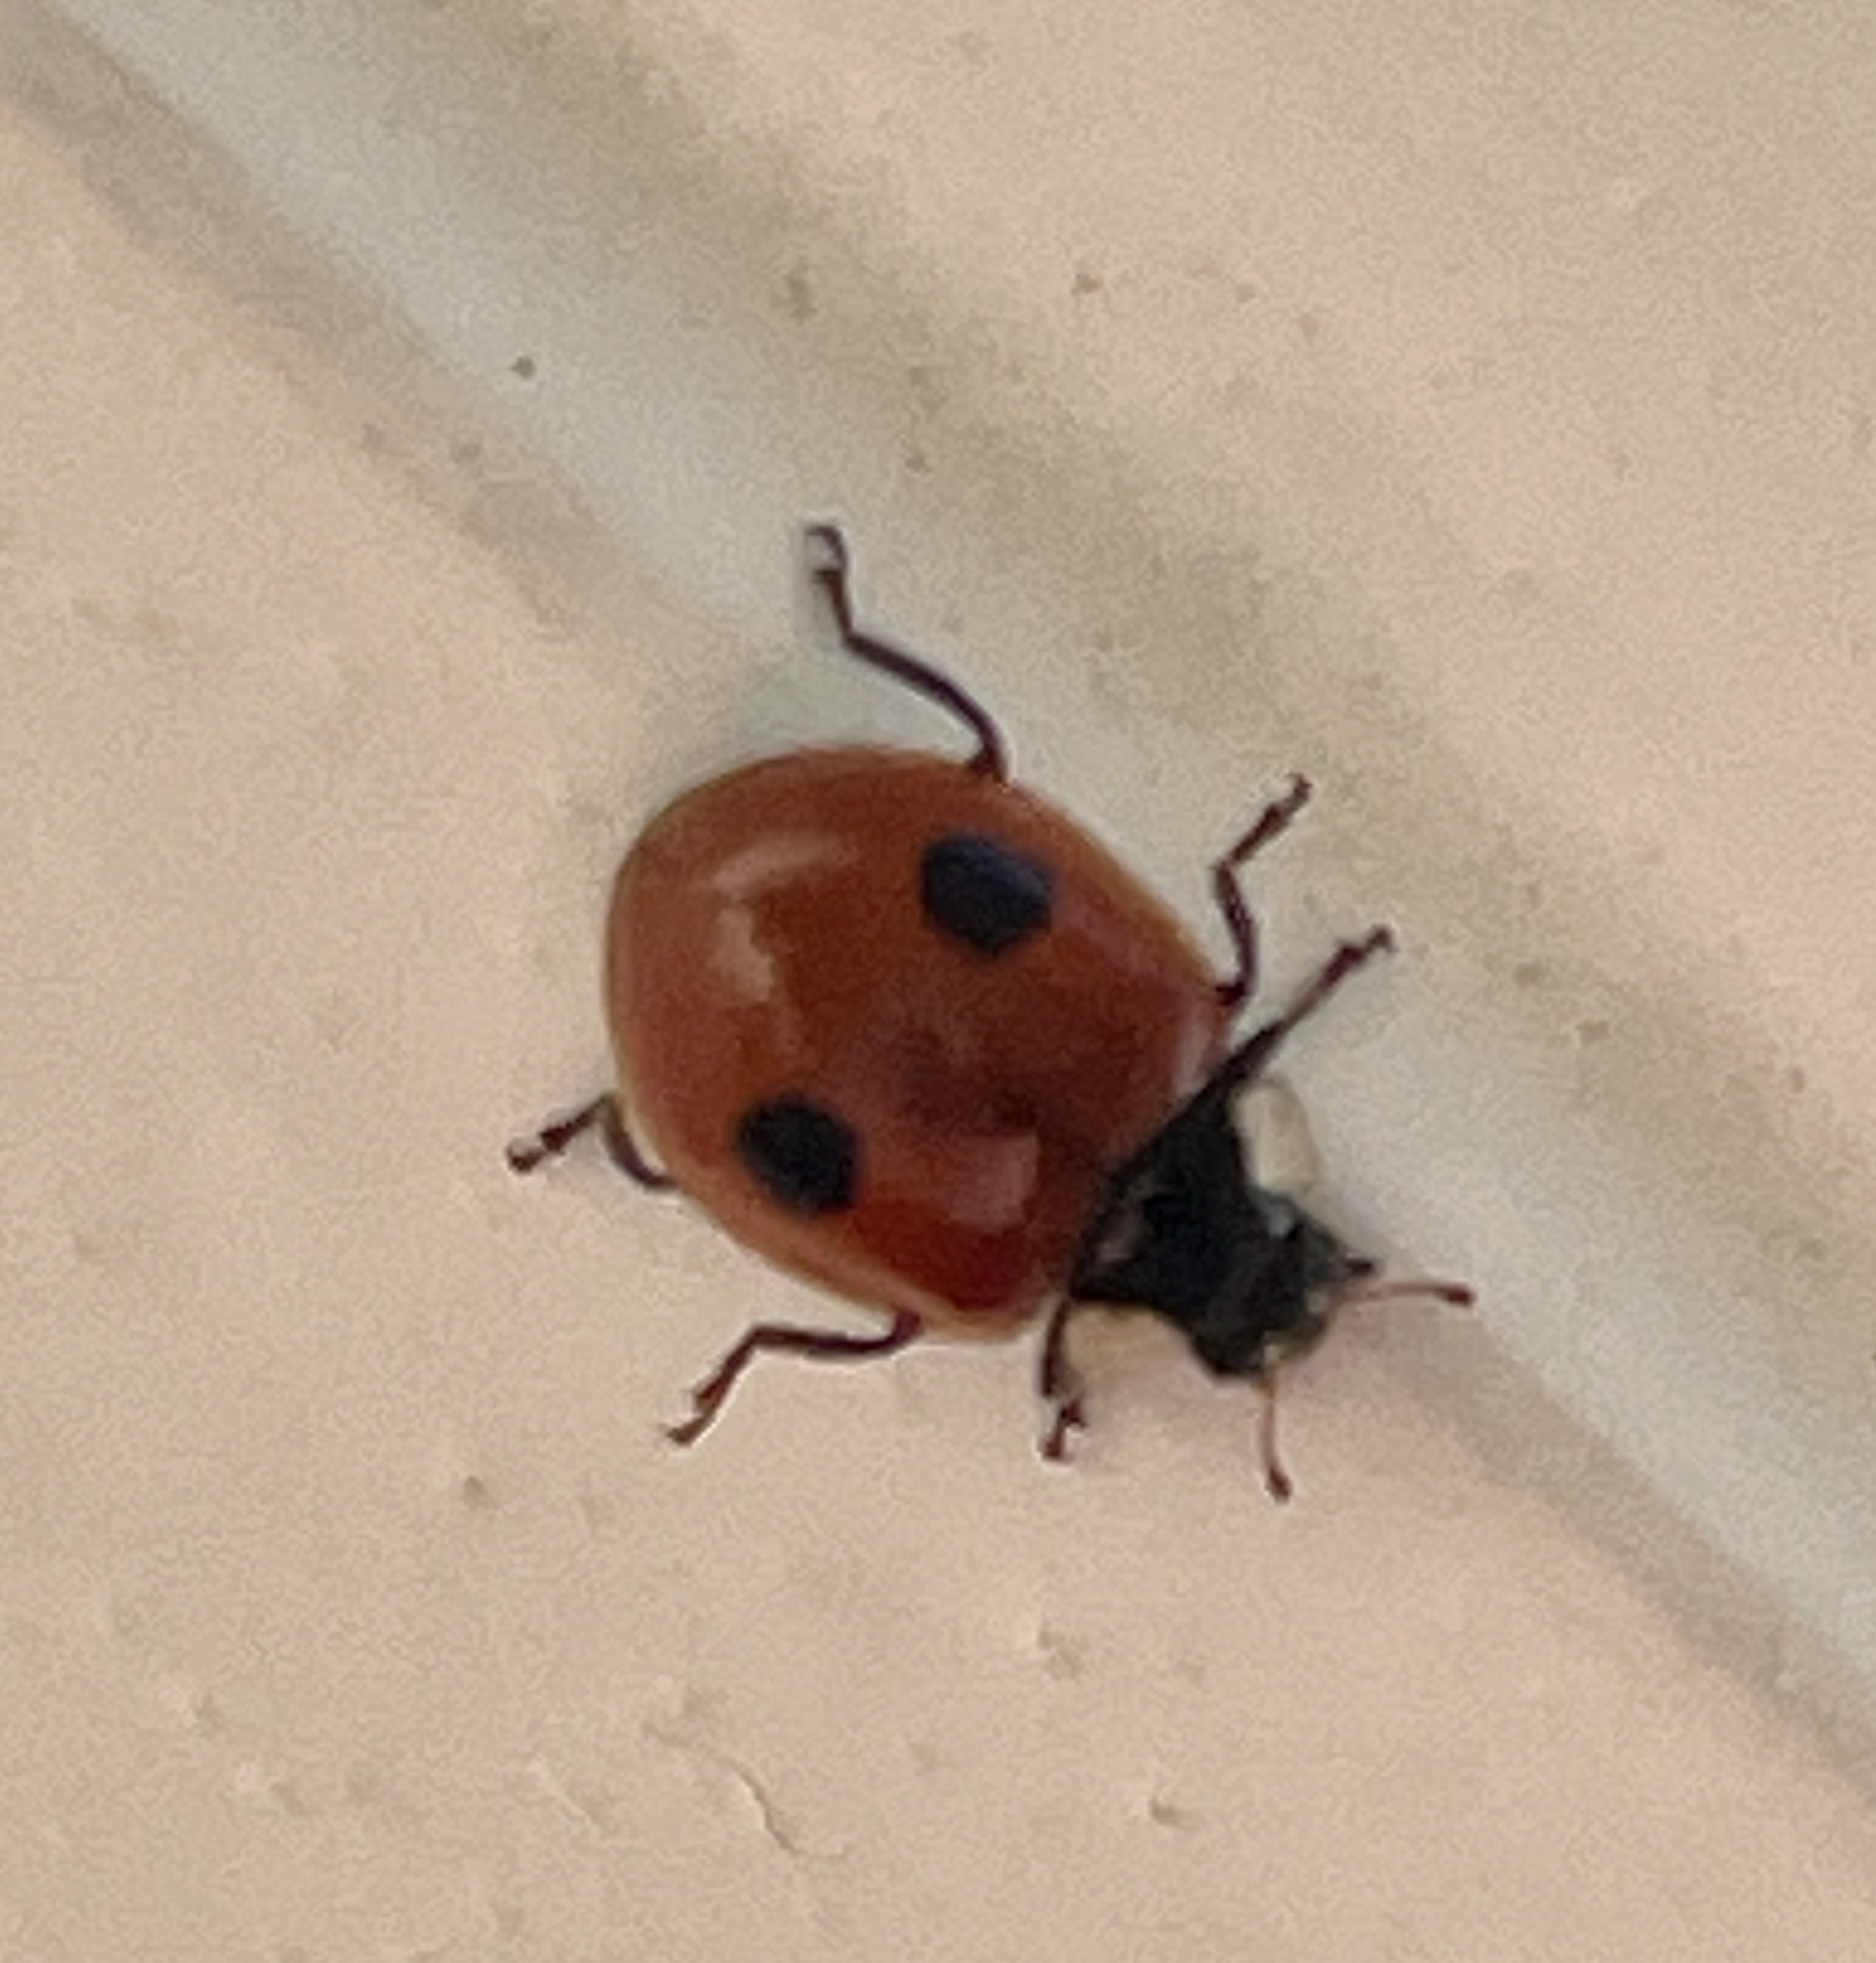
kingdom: Animalia
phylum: Arthropoda
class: Insecta
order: Coleoptera
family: Coccinellidae
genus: Adalia
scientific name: Adalia bipunctata
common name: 2-spot ladybird
